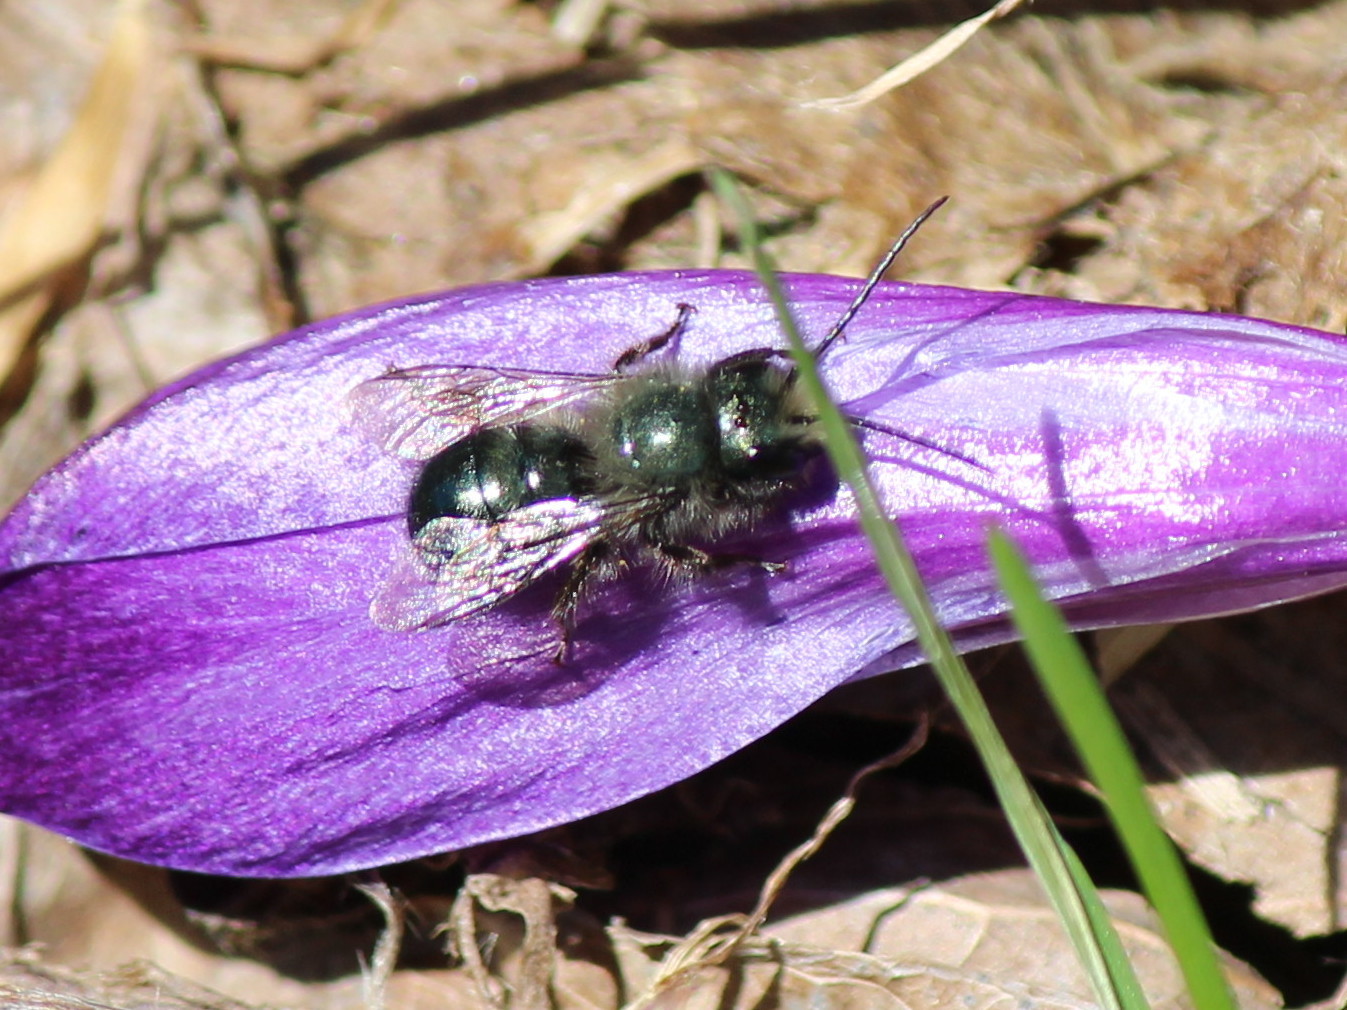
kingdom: Animalia
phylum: Arthropoda
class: Insecta
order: Hymenoptera
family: Megachilidae
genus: Osmia
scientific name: Osmia lignaria
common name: Blue orchard bee
